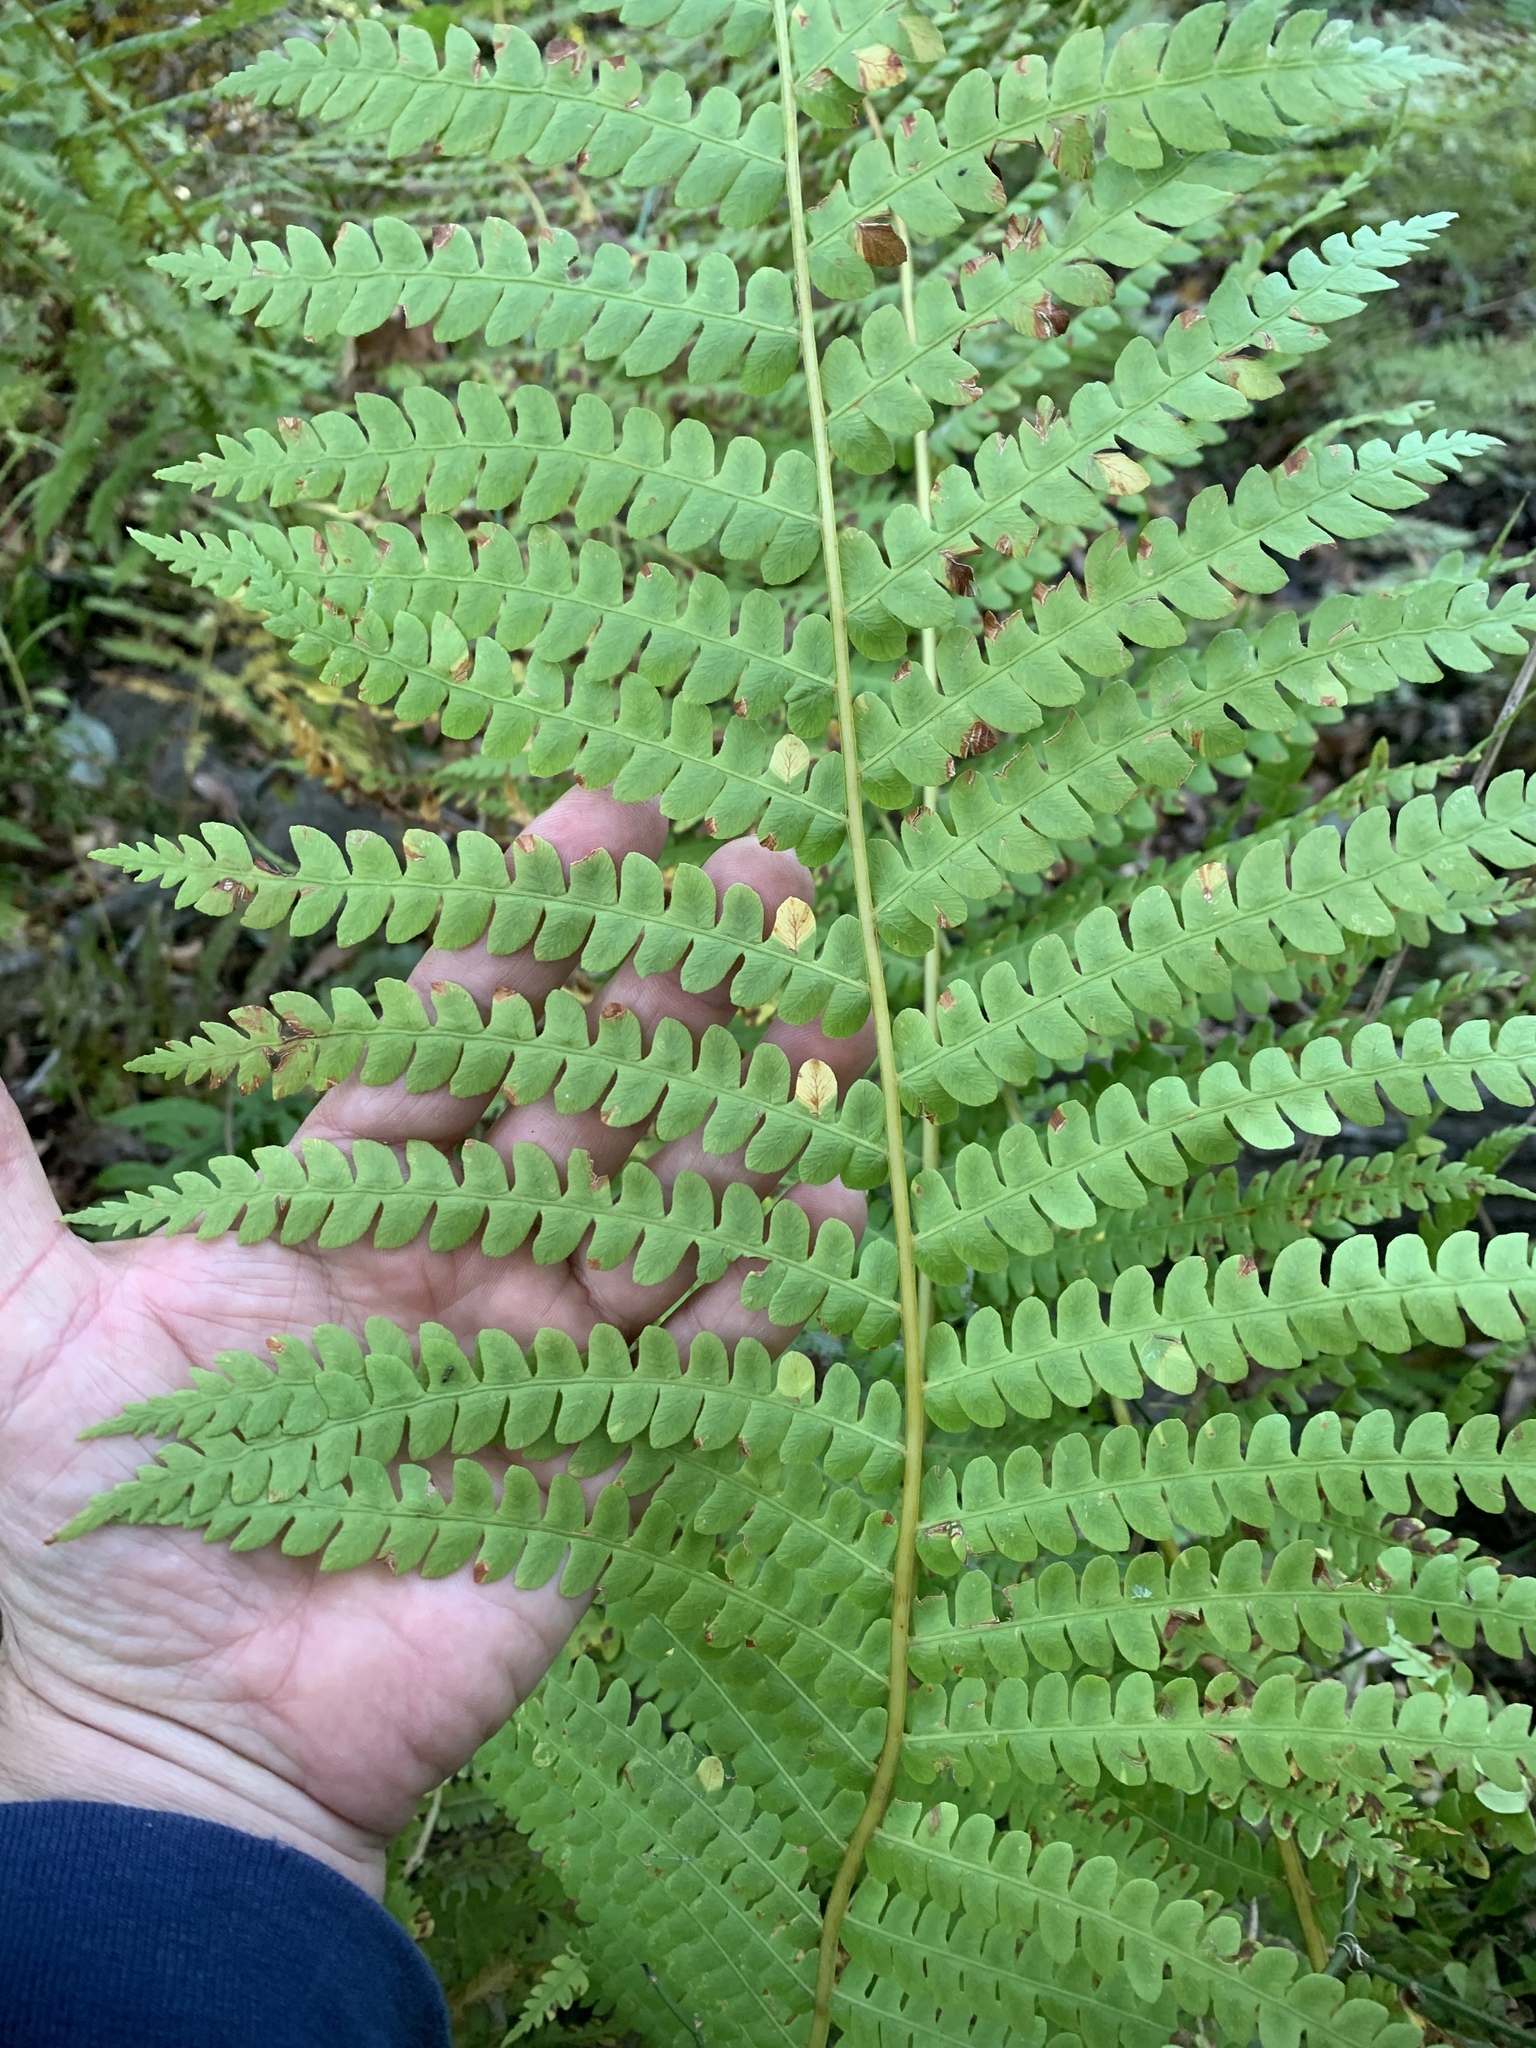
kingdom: Plantae
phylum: Tracheophyta
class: Polypodiopsida
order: Osmundales
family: Osmundaceae
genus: Osmundastrum
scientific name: Osmundastrum cinnamomeum
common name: Cinnamon fern
